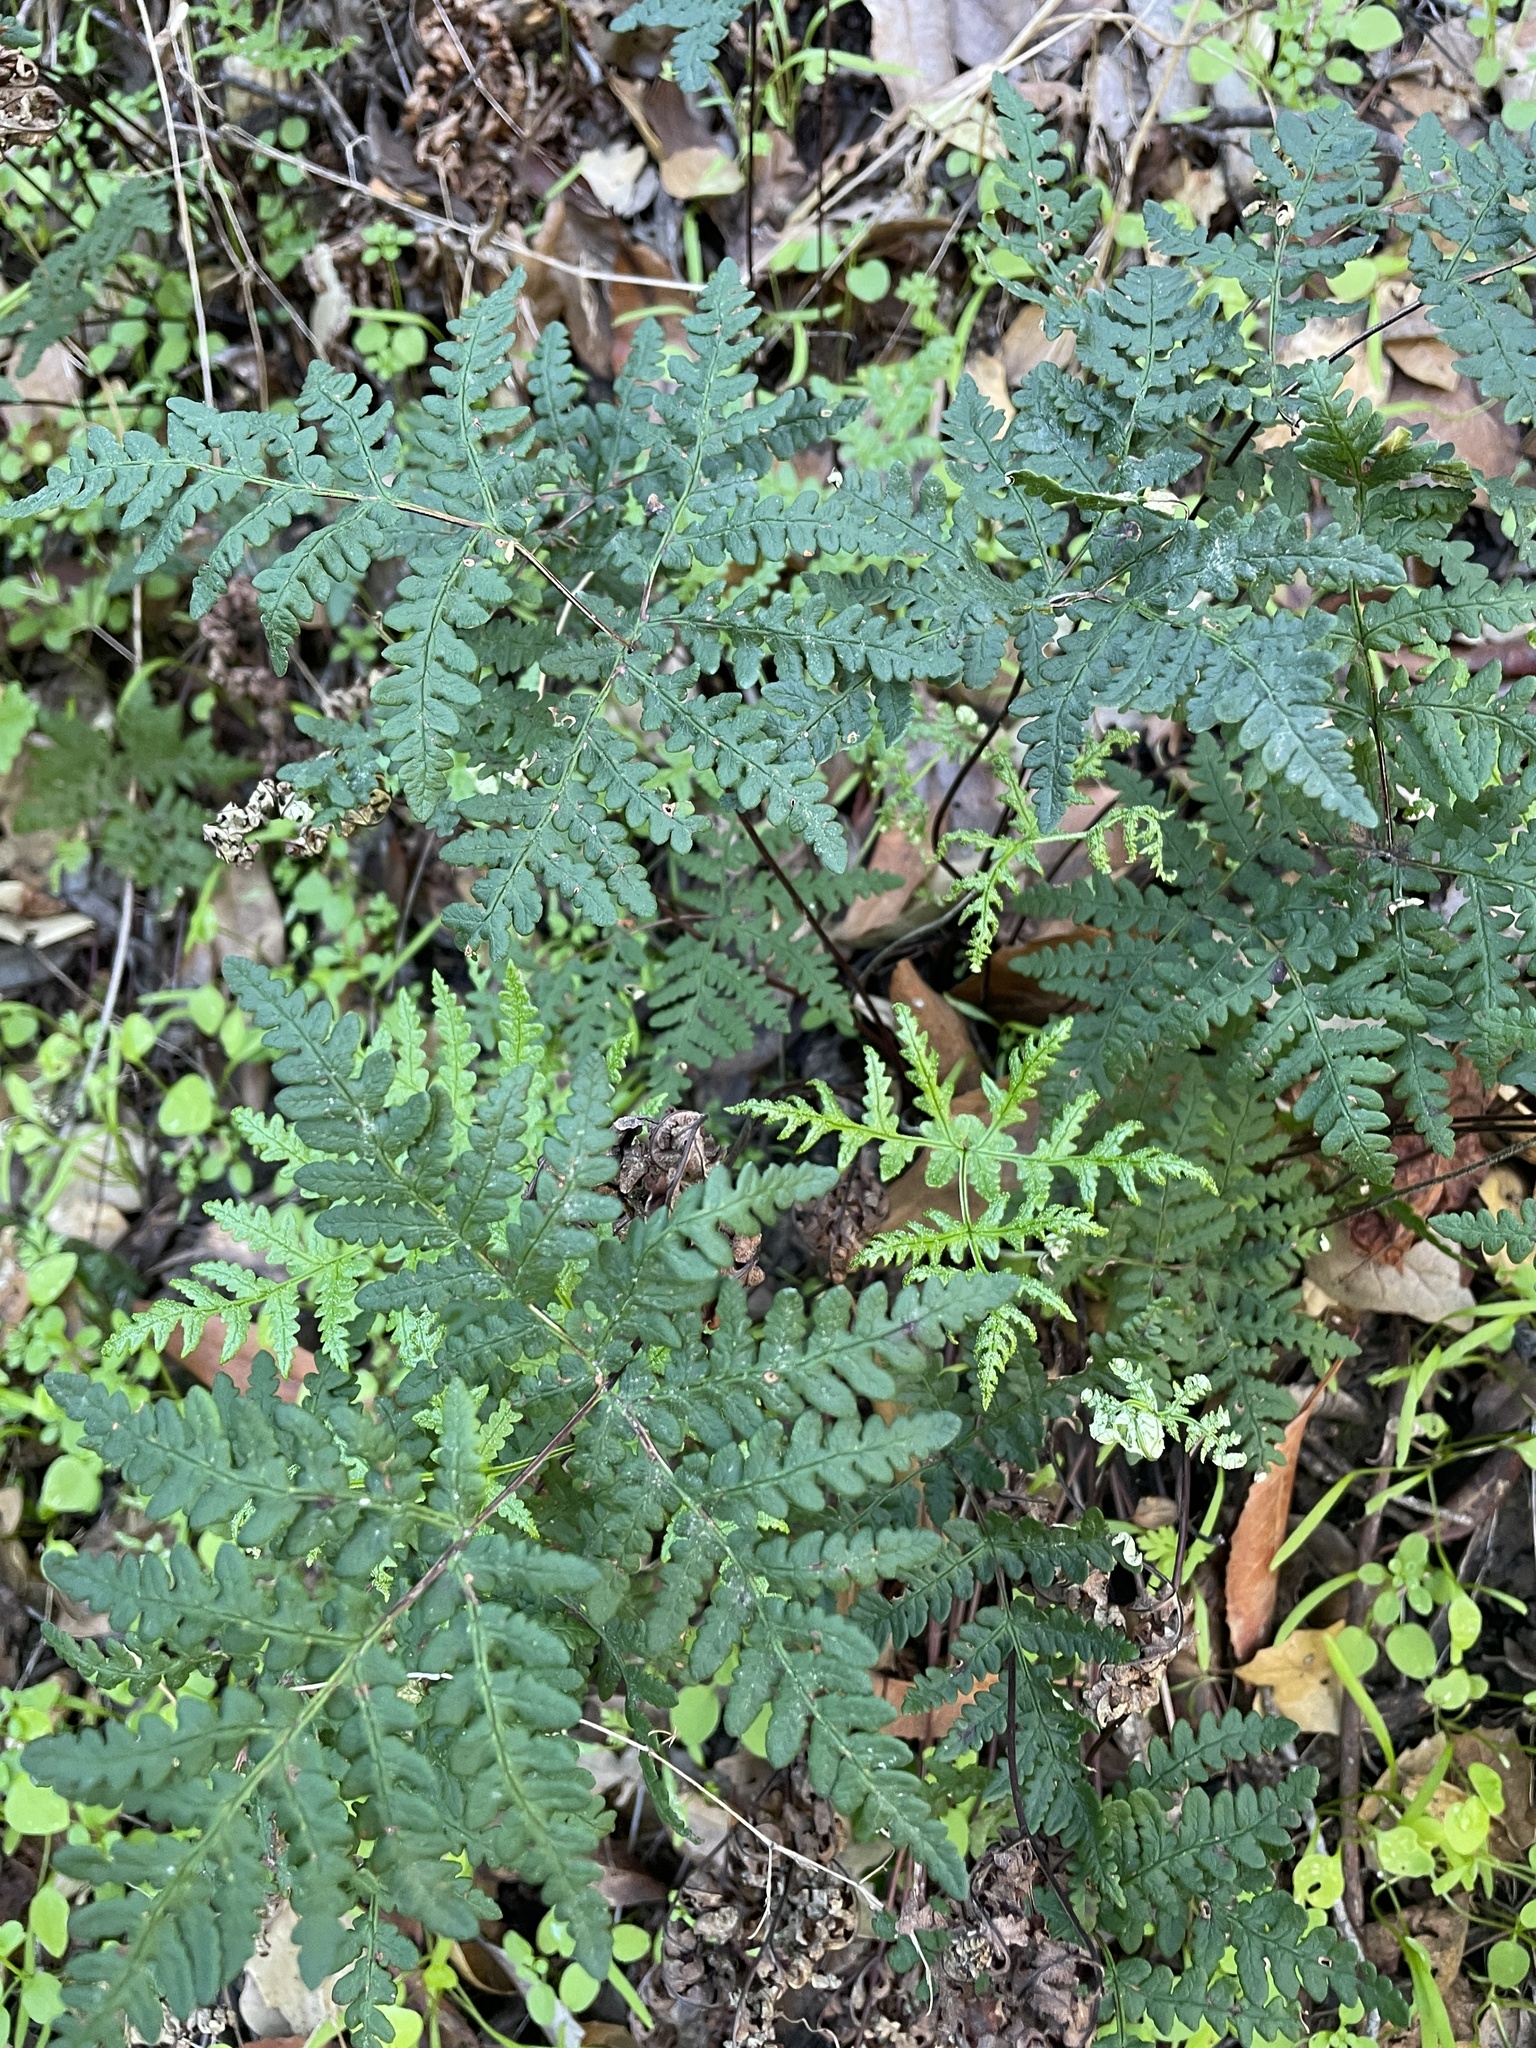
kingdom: Plantae
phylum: Tracheophyta
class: Polypodiopsida
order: Polypodiales
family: Pteridaceae
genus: Pentagramma
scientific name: Pentagramma triangularis
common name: Gold fern
